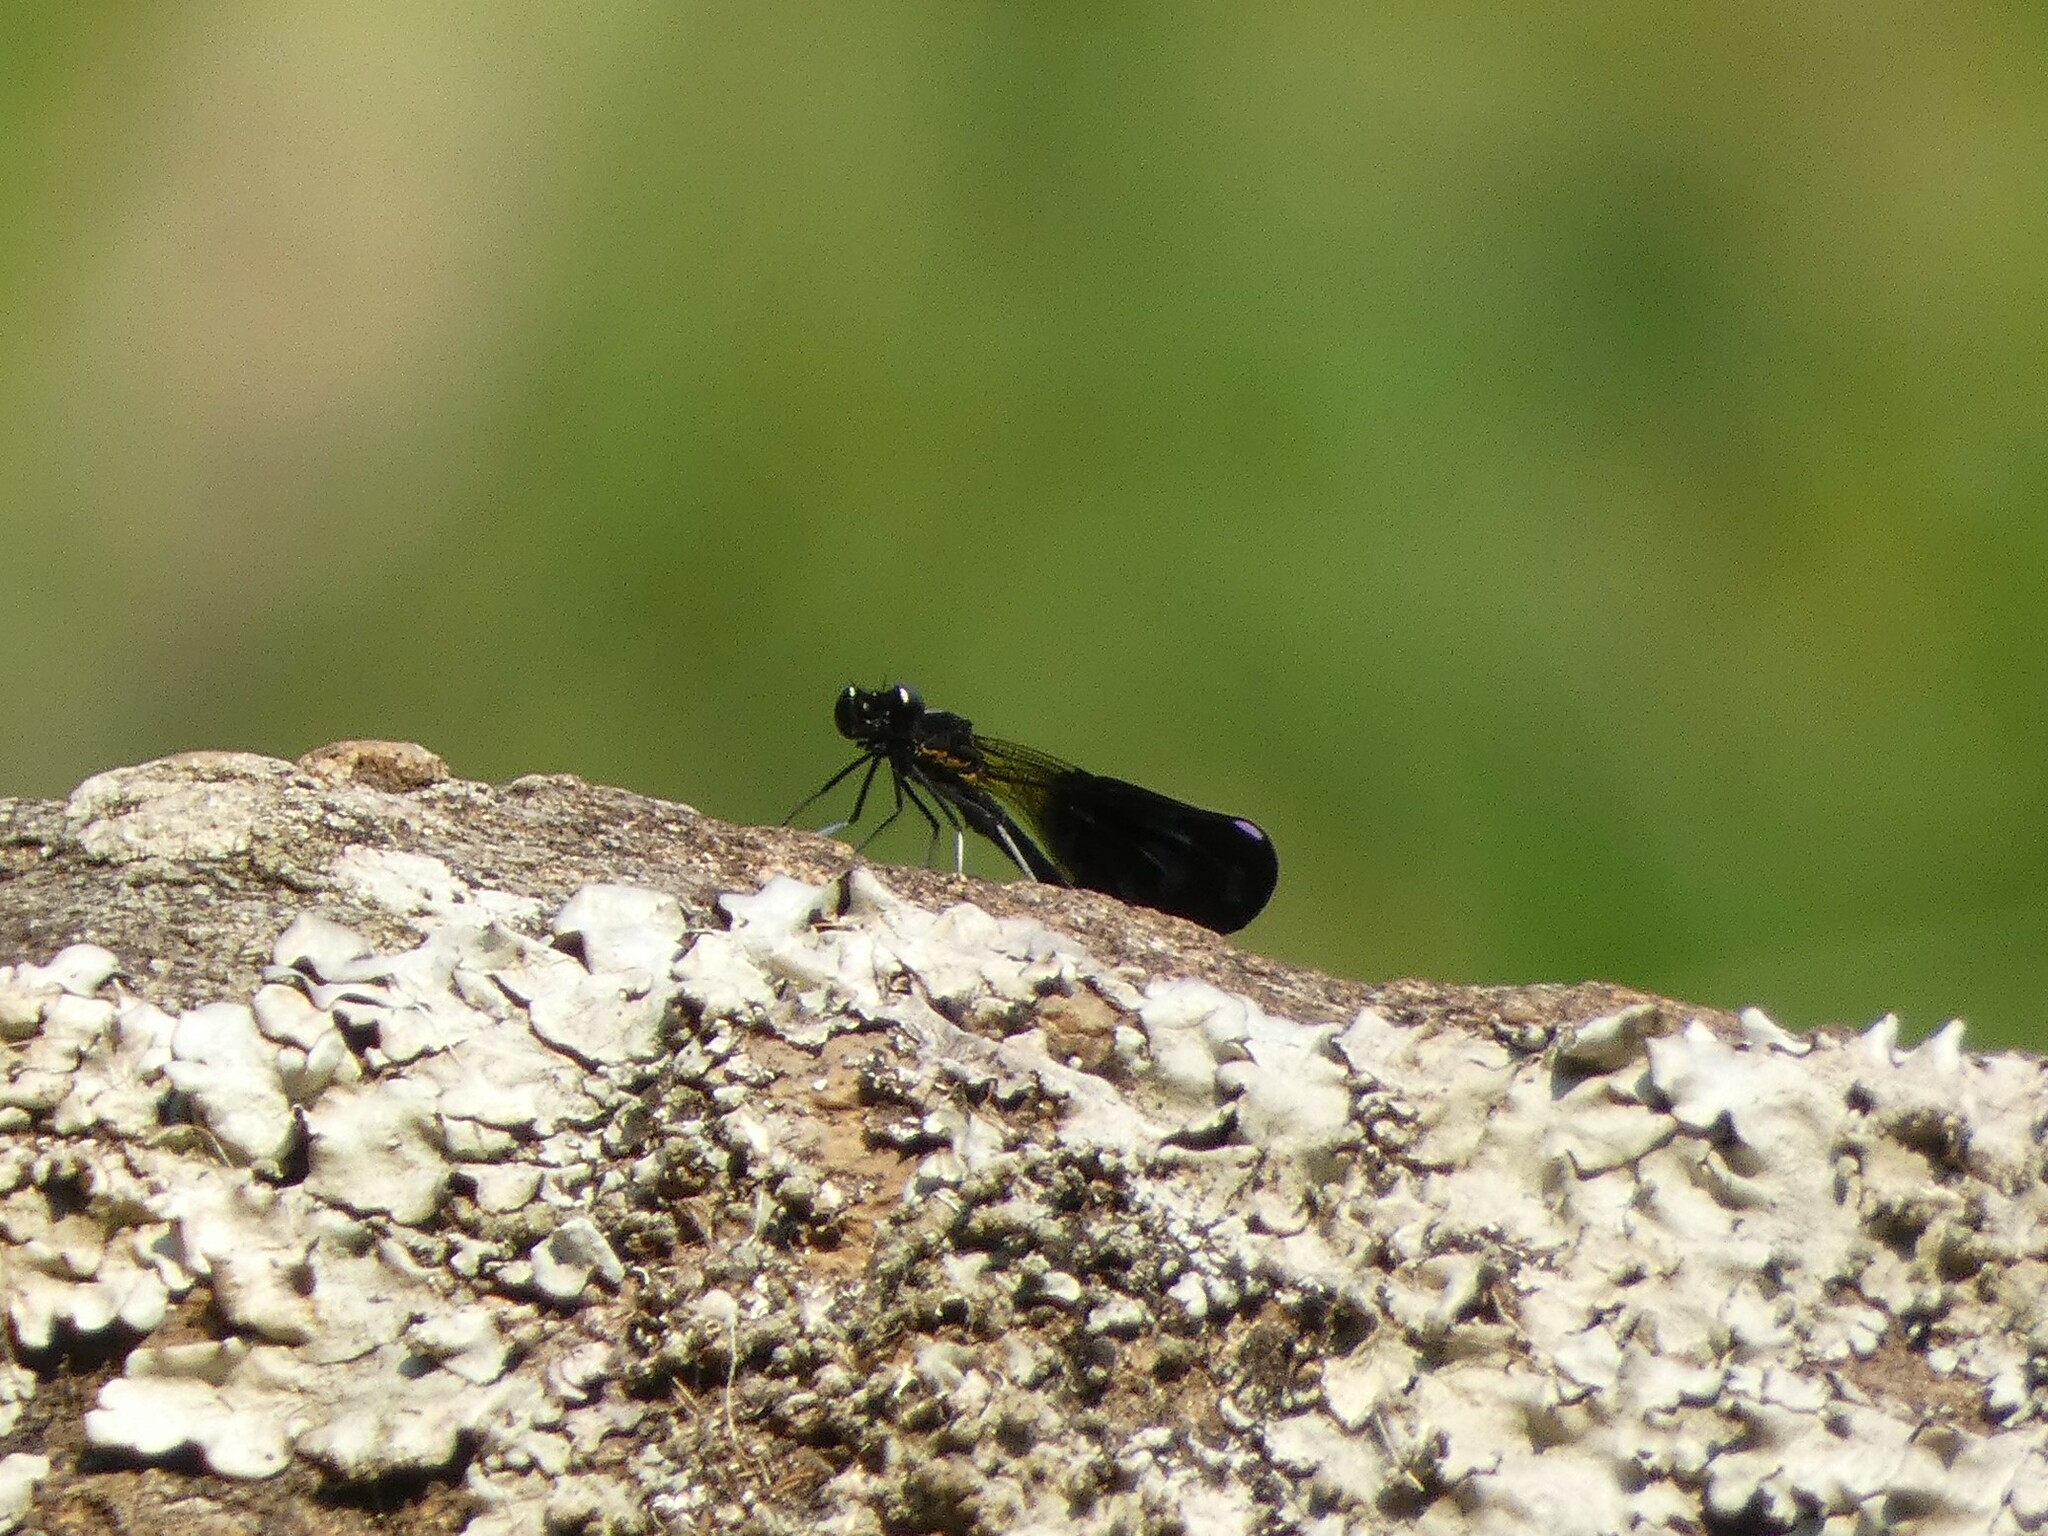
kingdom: Animalia
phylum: Arthropoda
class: Insecta
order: Odonata
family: Chlorocyphidae
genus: Aristocypha
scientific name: Aristocypha fenestrella
